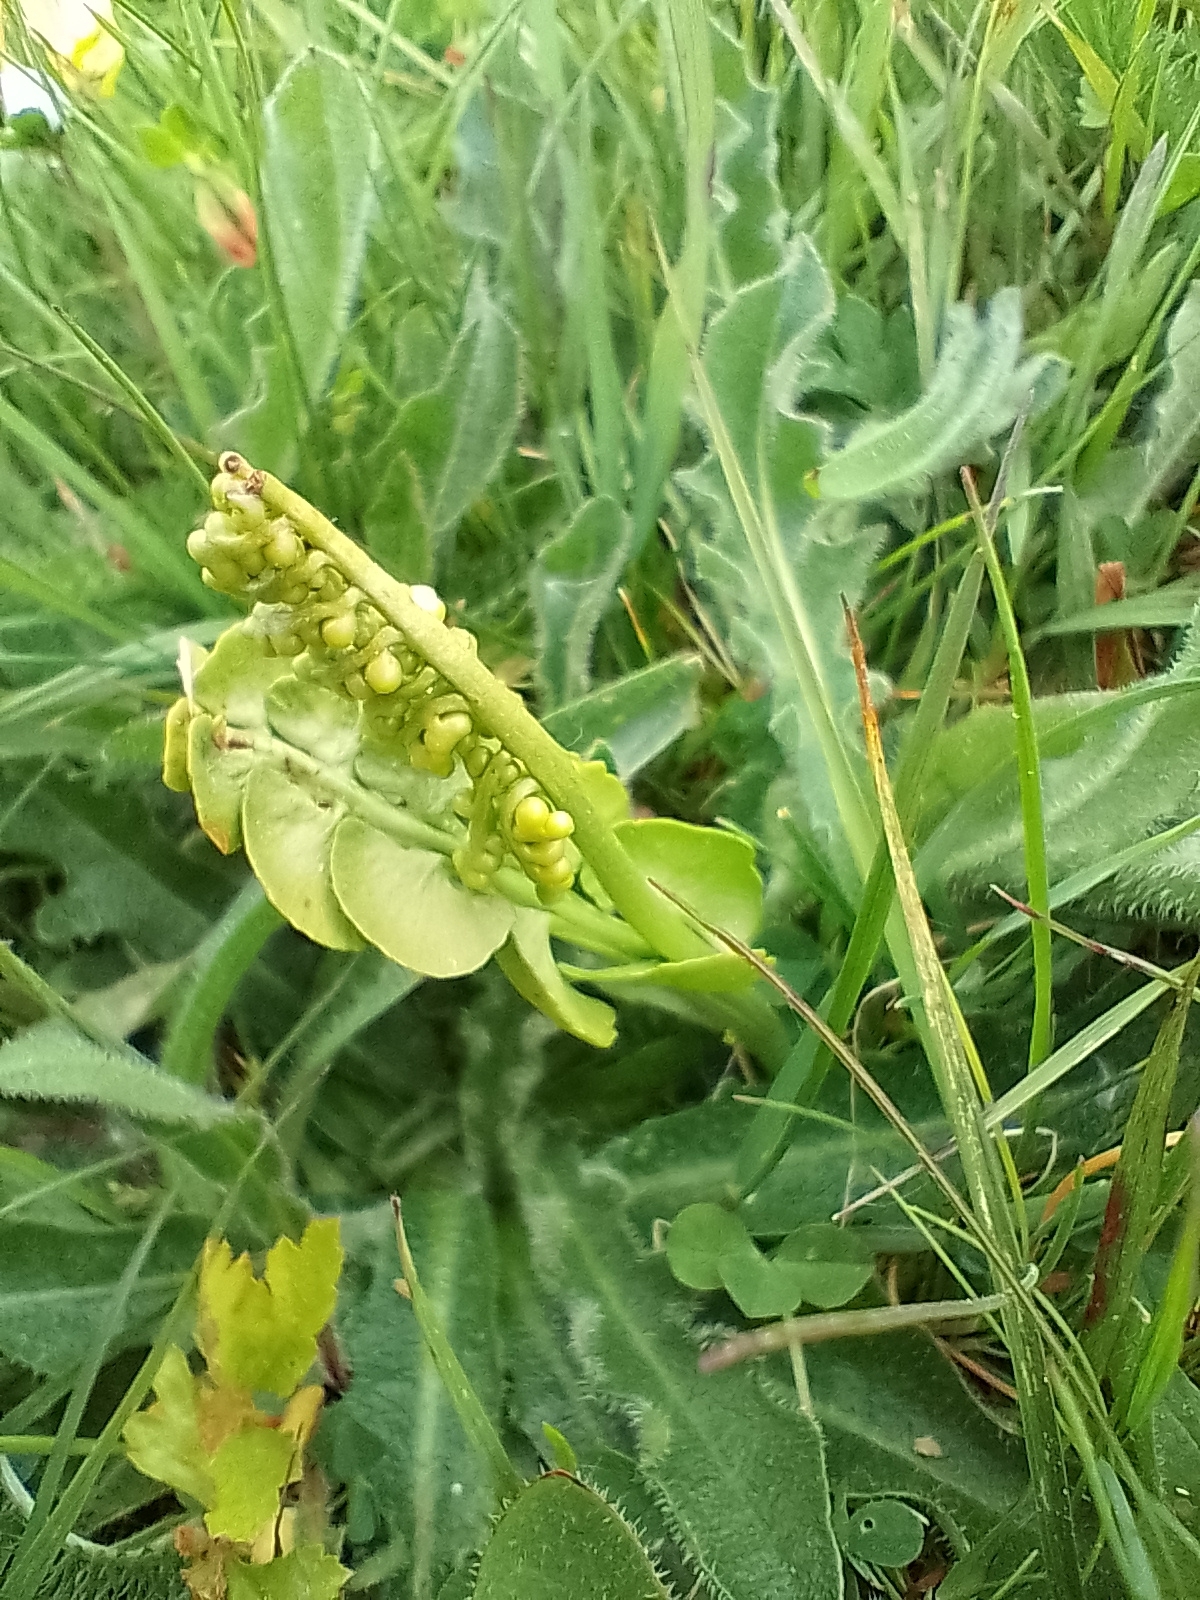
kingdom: Plantae
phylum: Tracheophyta
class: Polypodiopsida
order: Ophioglossales
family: Ophioglossaceae
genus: Botrychium
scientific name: Botrychium lunaria
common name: Moonwort
